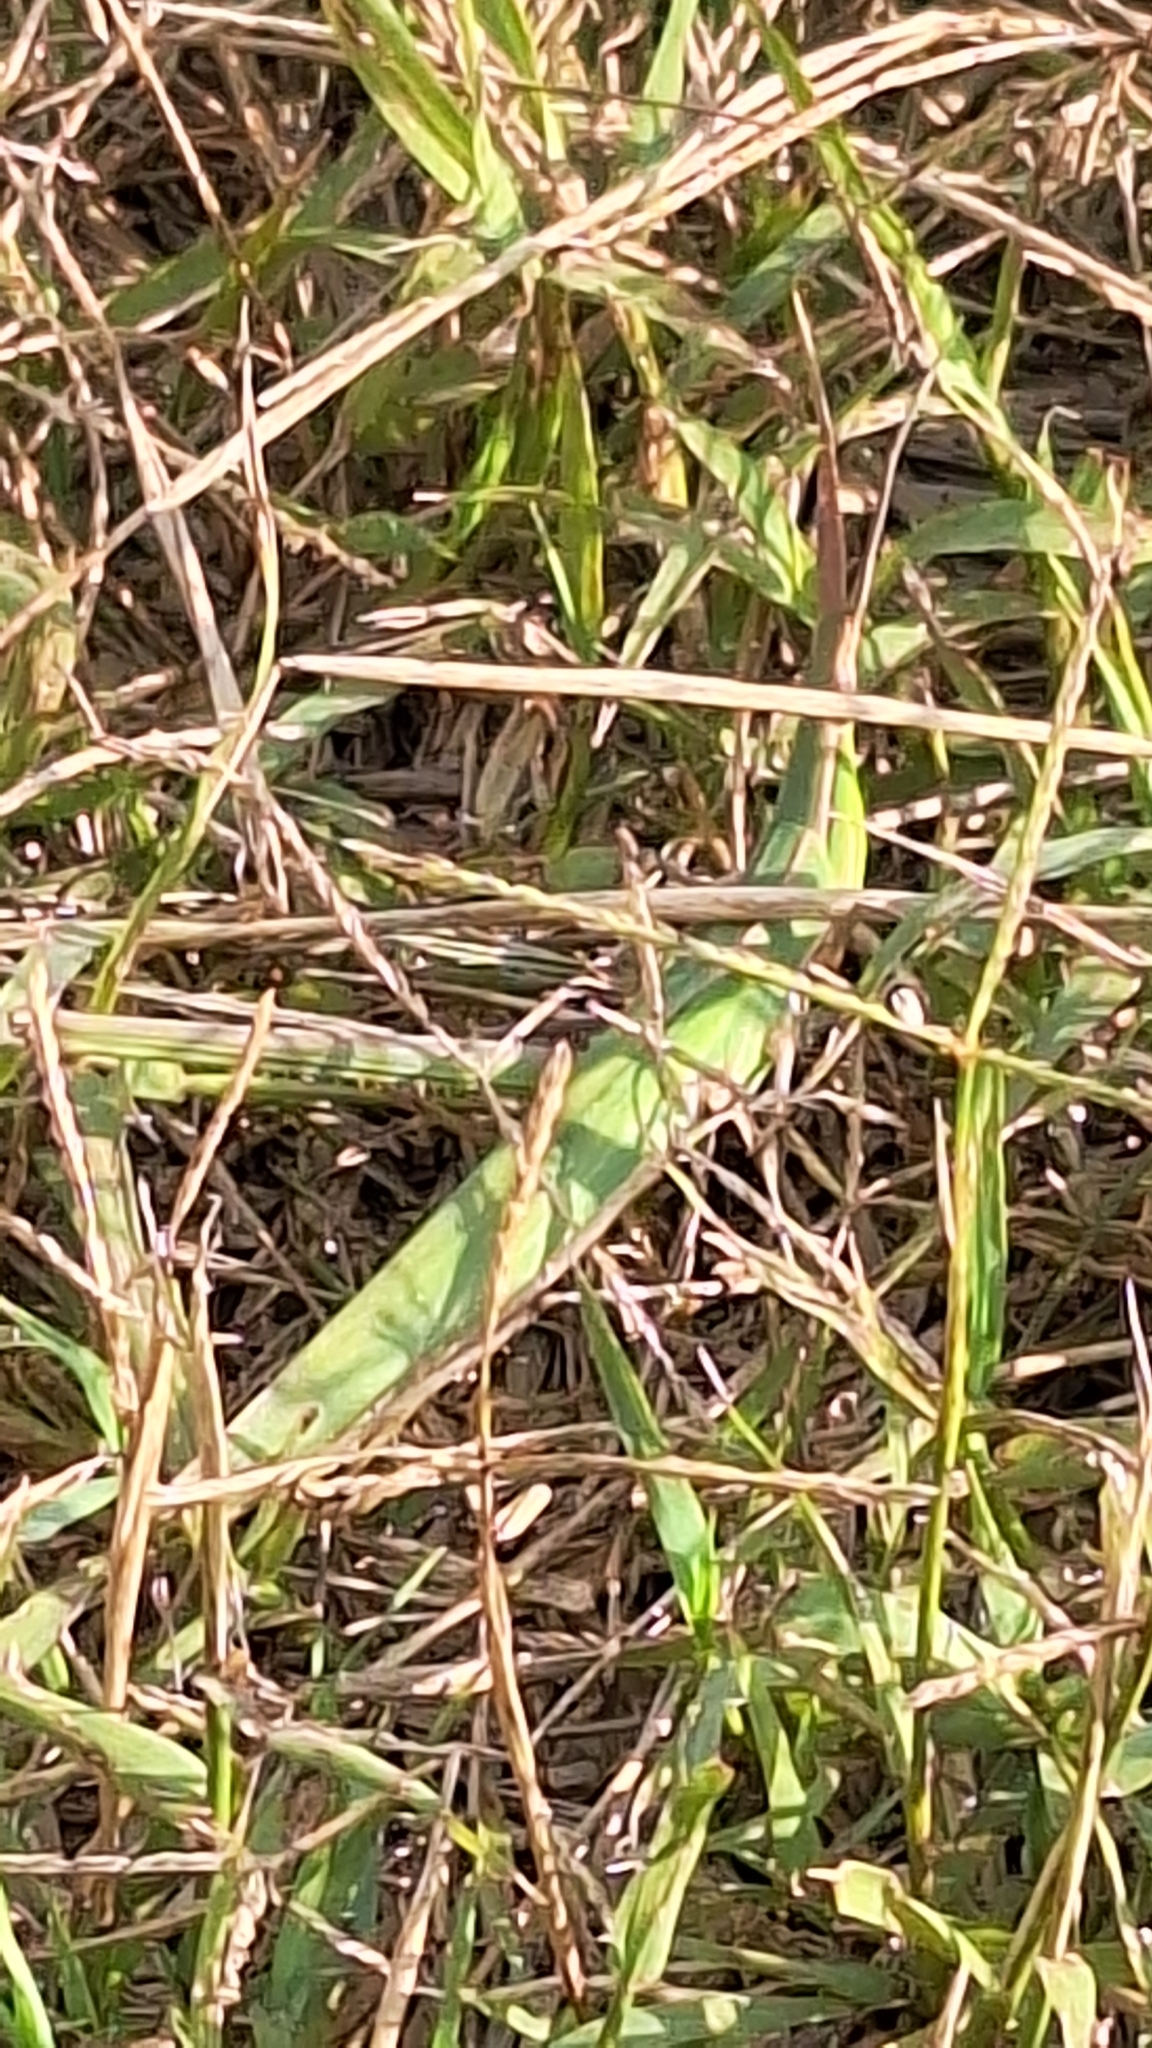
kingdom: Animalia
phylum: Arthropoda
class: Insecta
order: Orthoptera
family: Acrididae
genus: Acrida
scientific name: Acrida ungarica
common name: Common cone-headed grasshopper
